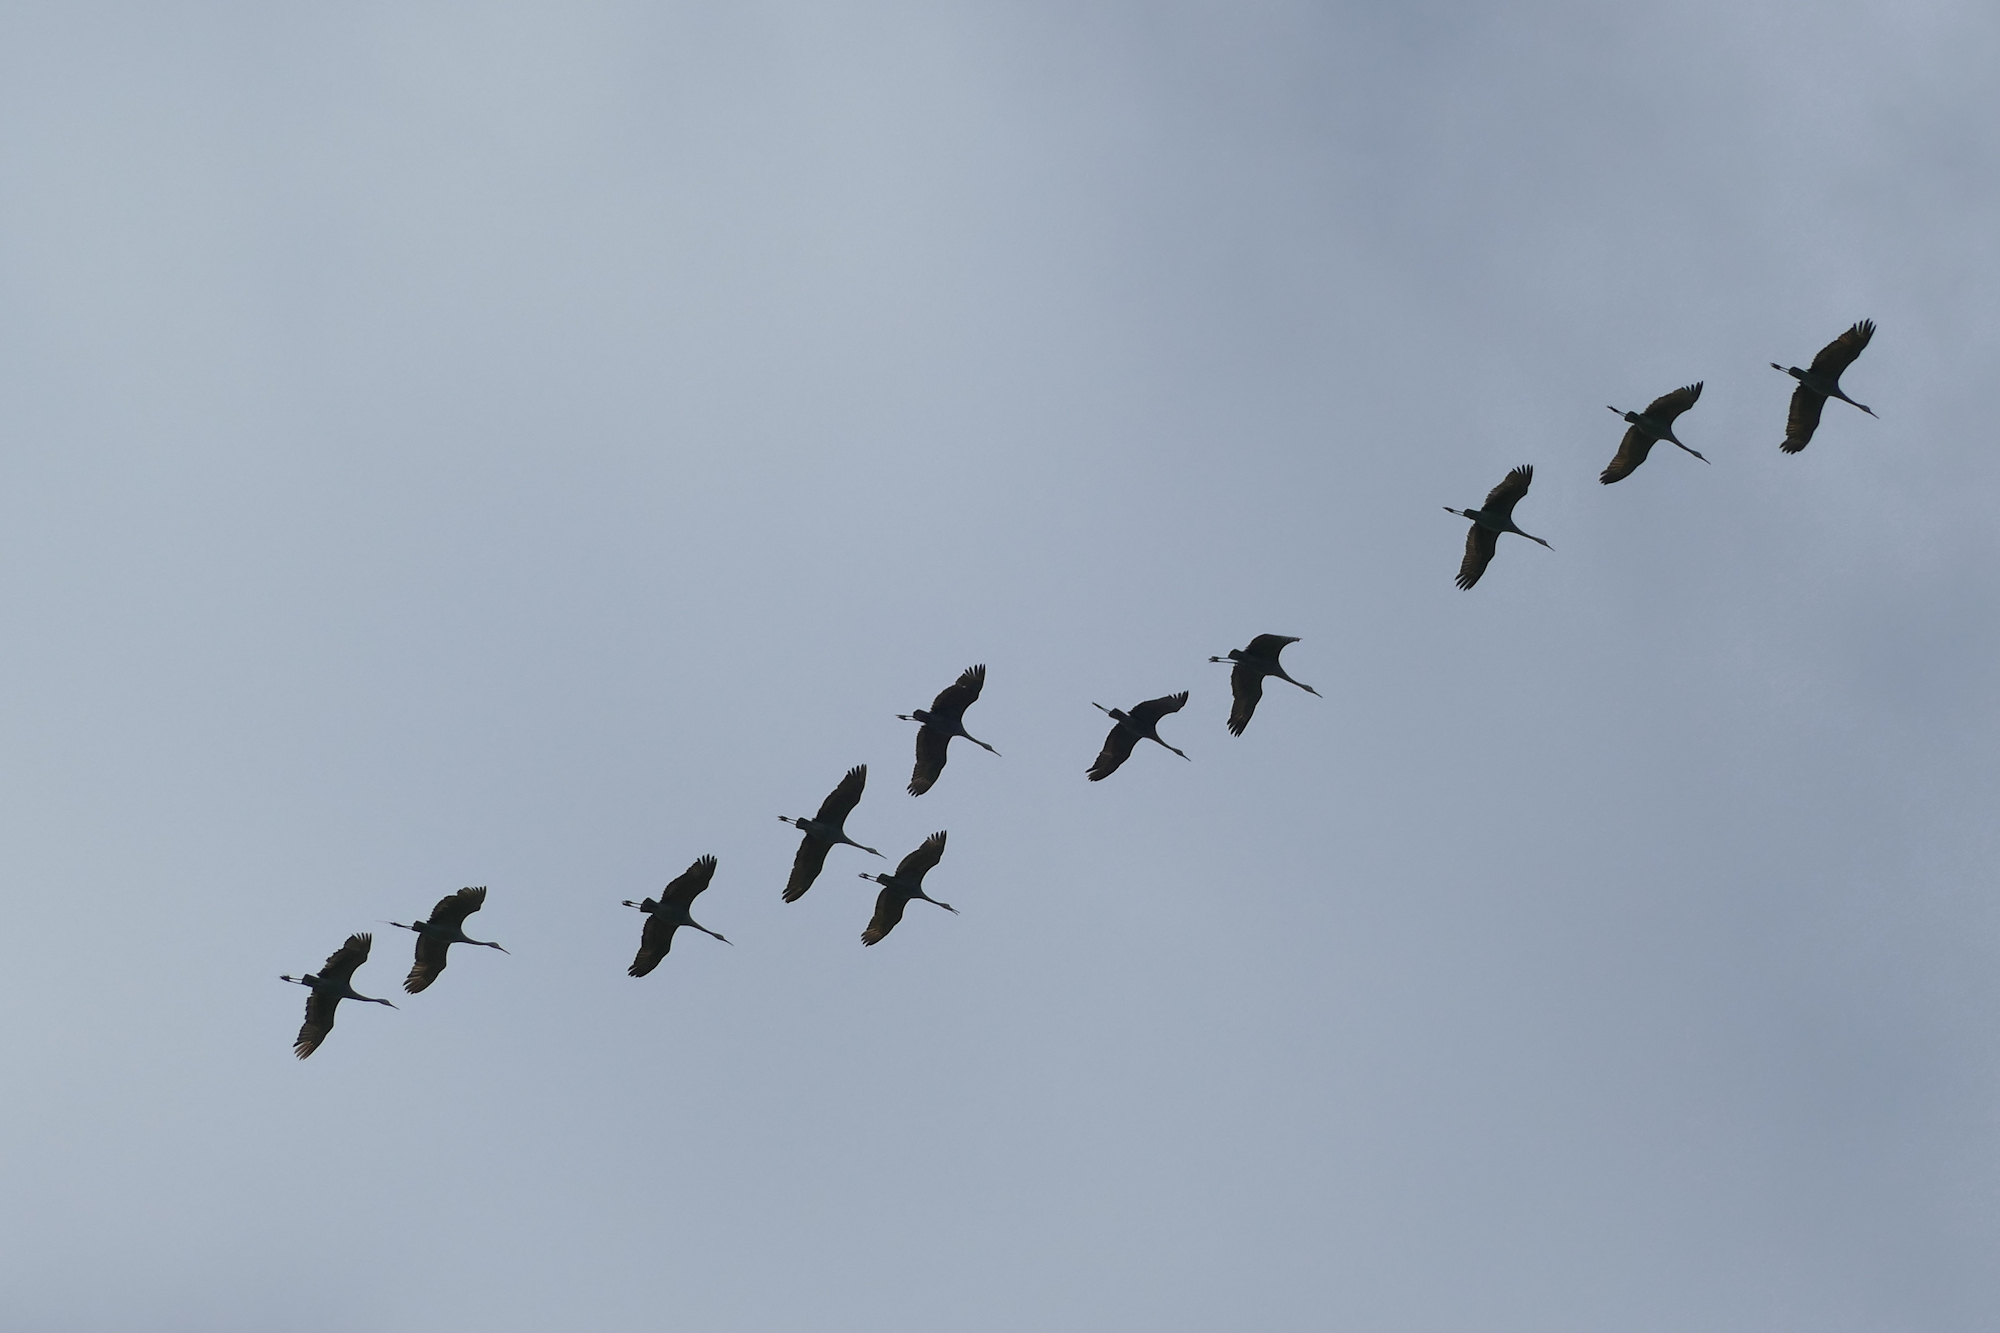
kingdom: Animalia
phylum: Chordata
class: Aves
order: Gruiformes
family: Gruidae
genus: Grus
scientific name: Grus canadensis
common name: Sandhill crane
